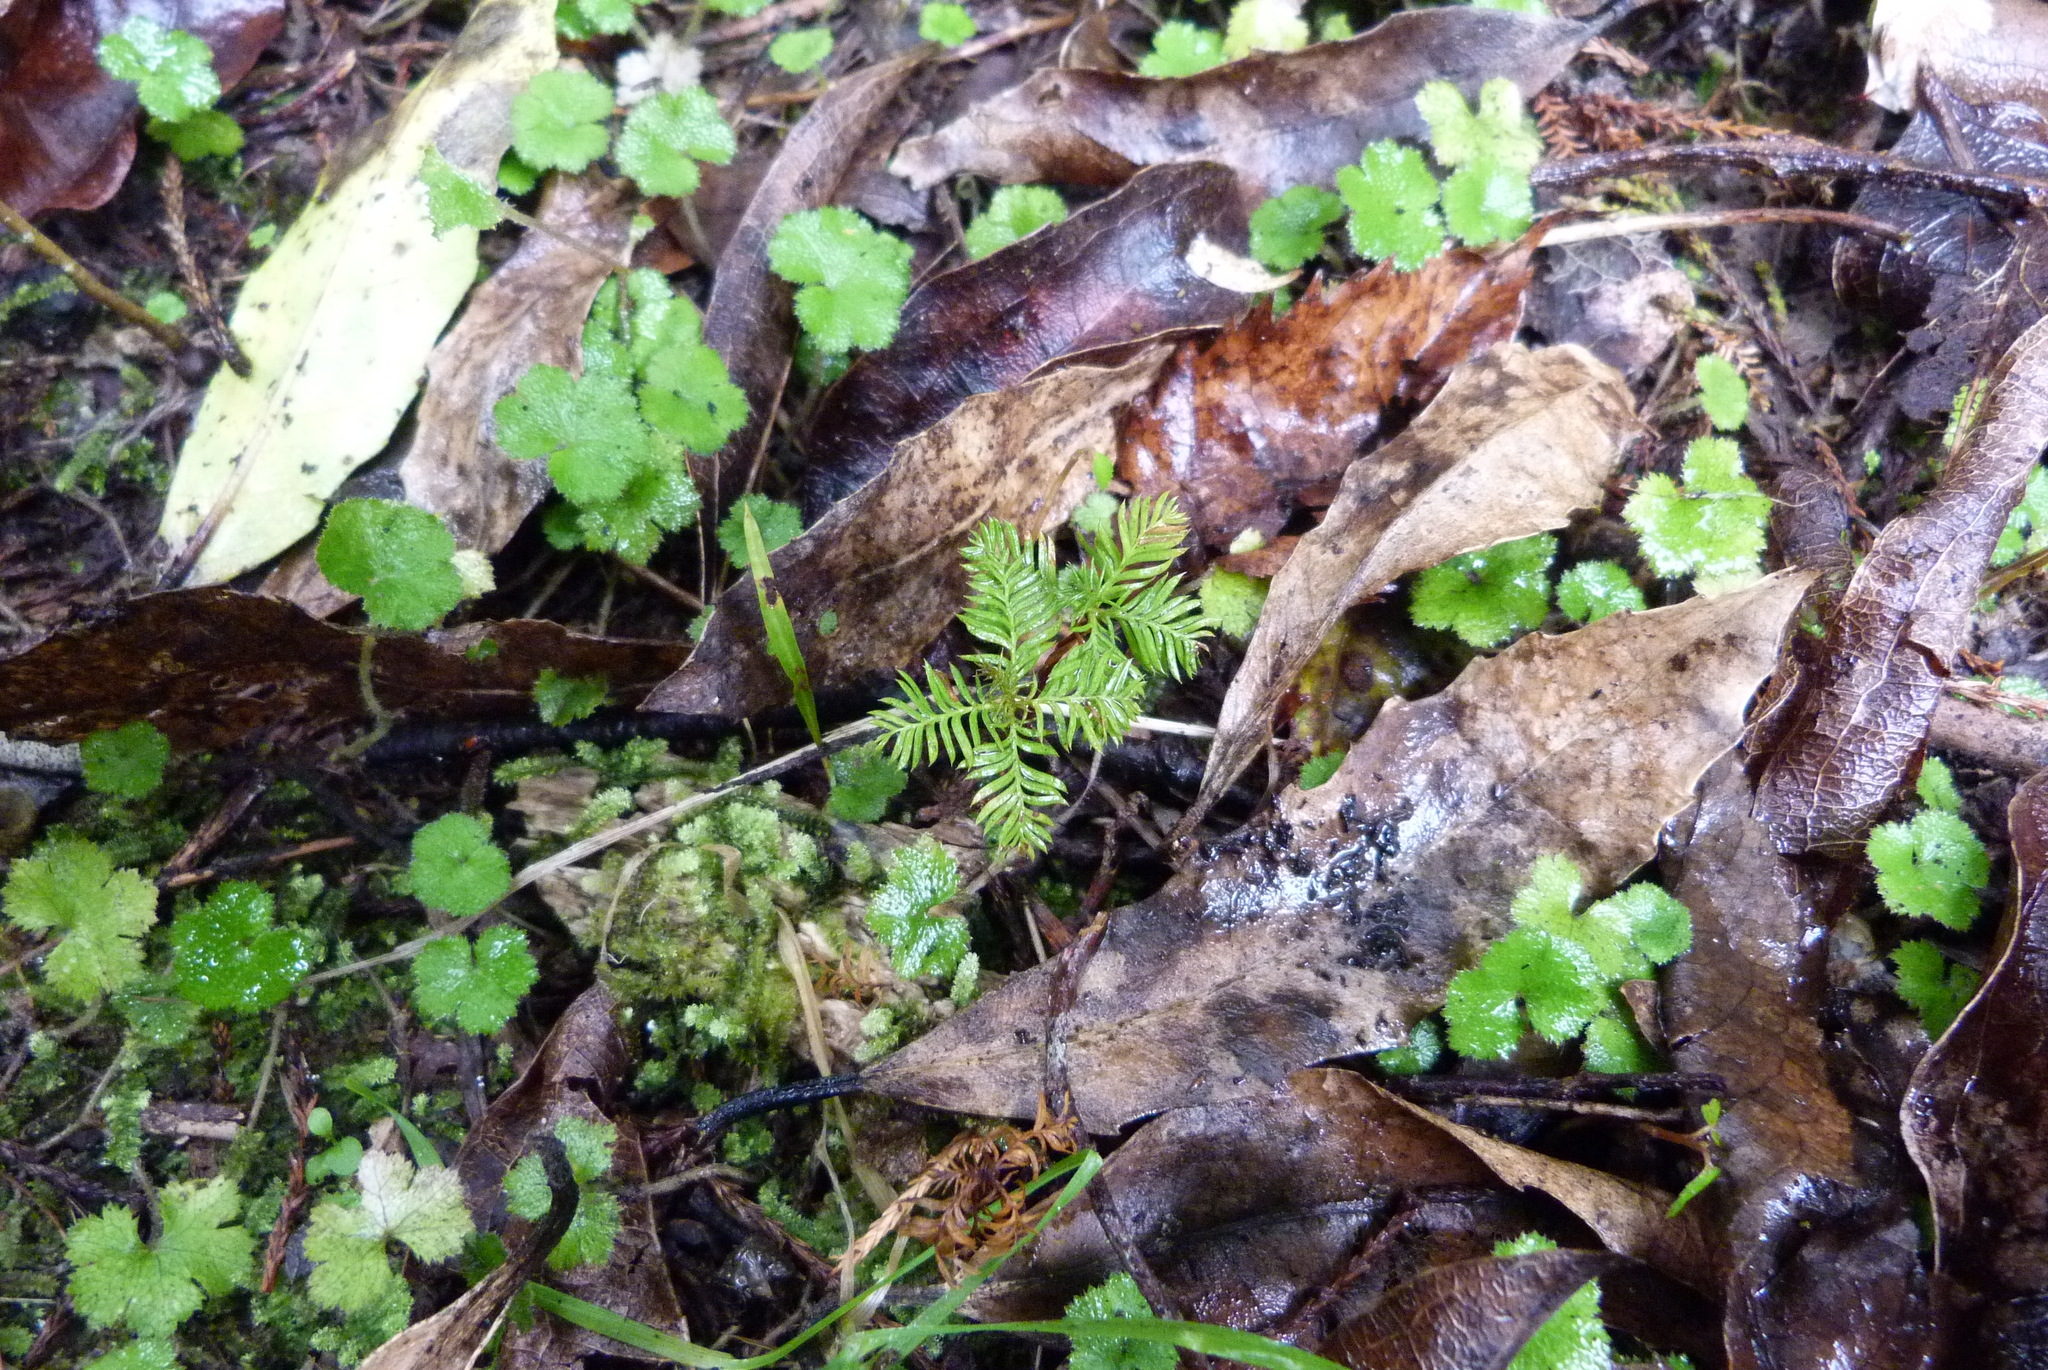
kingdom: Plantae
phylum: Tracheophyta
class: Pinopsida
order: Pinales
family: Podocarpaceae
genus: Dacrycarpus
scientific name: Dacrycarpus dacrydioides
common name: White pine
